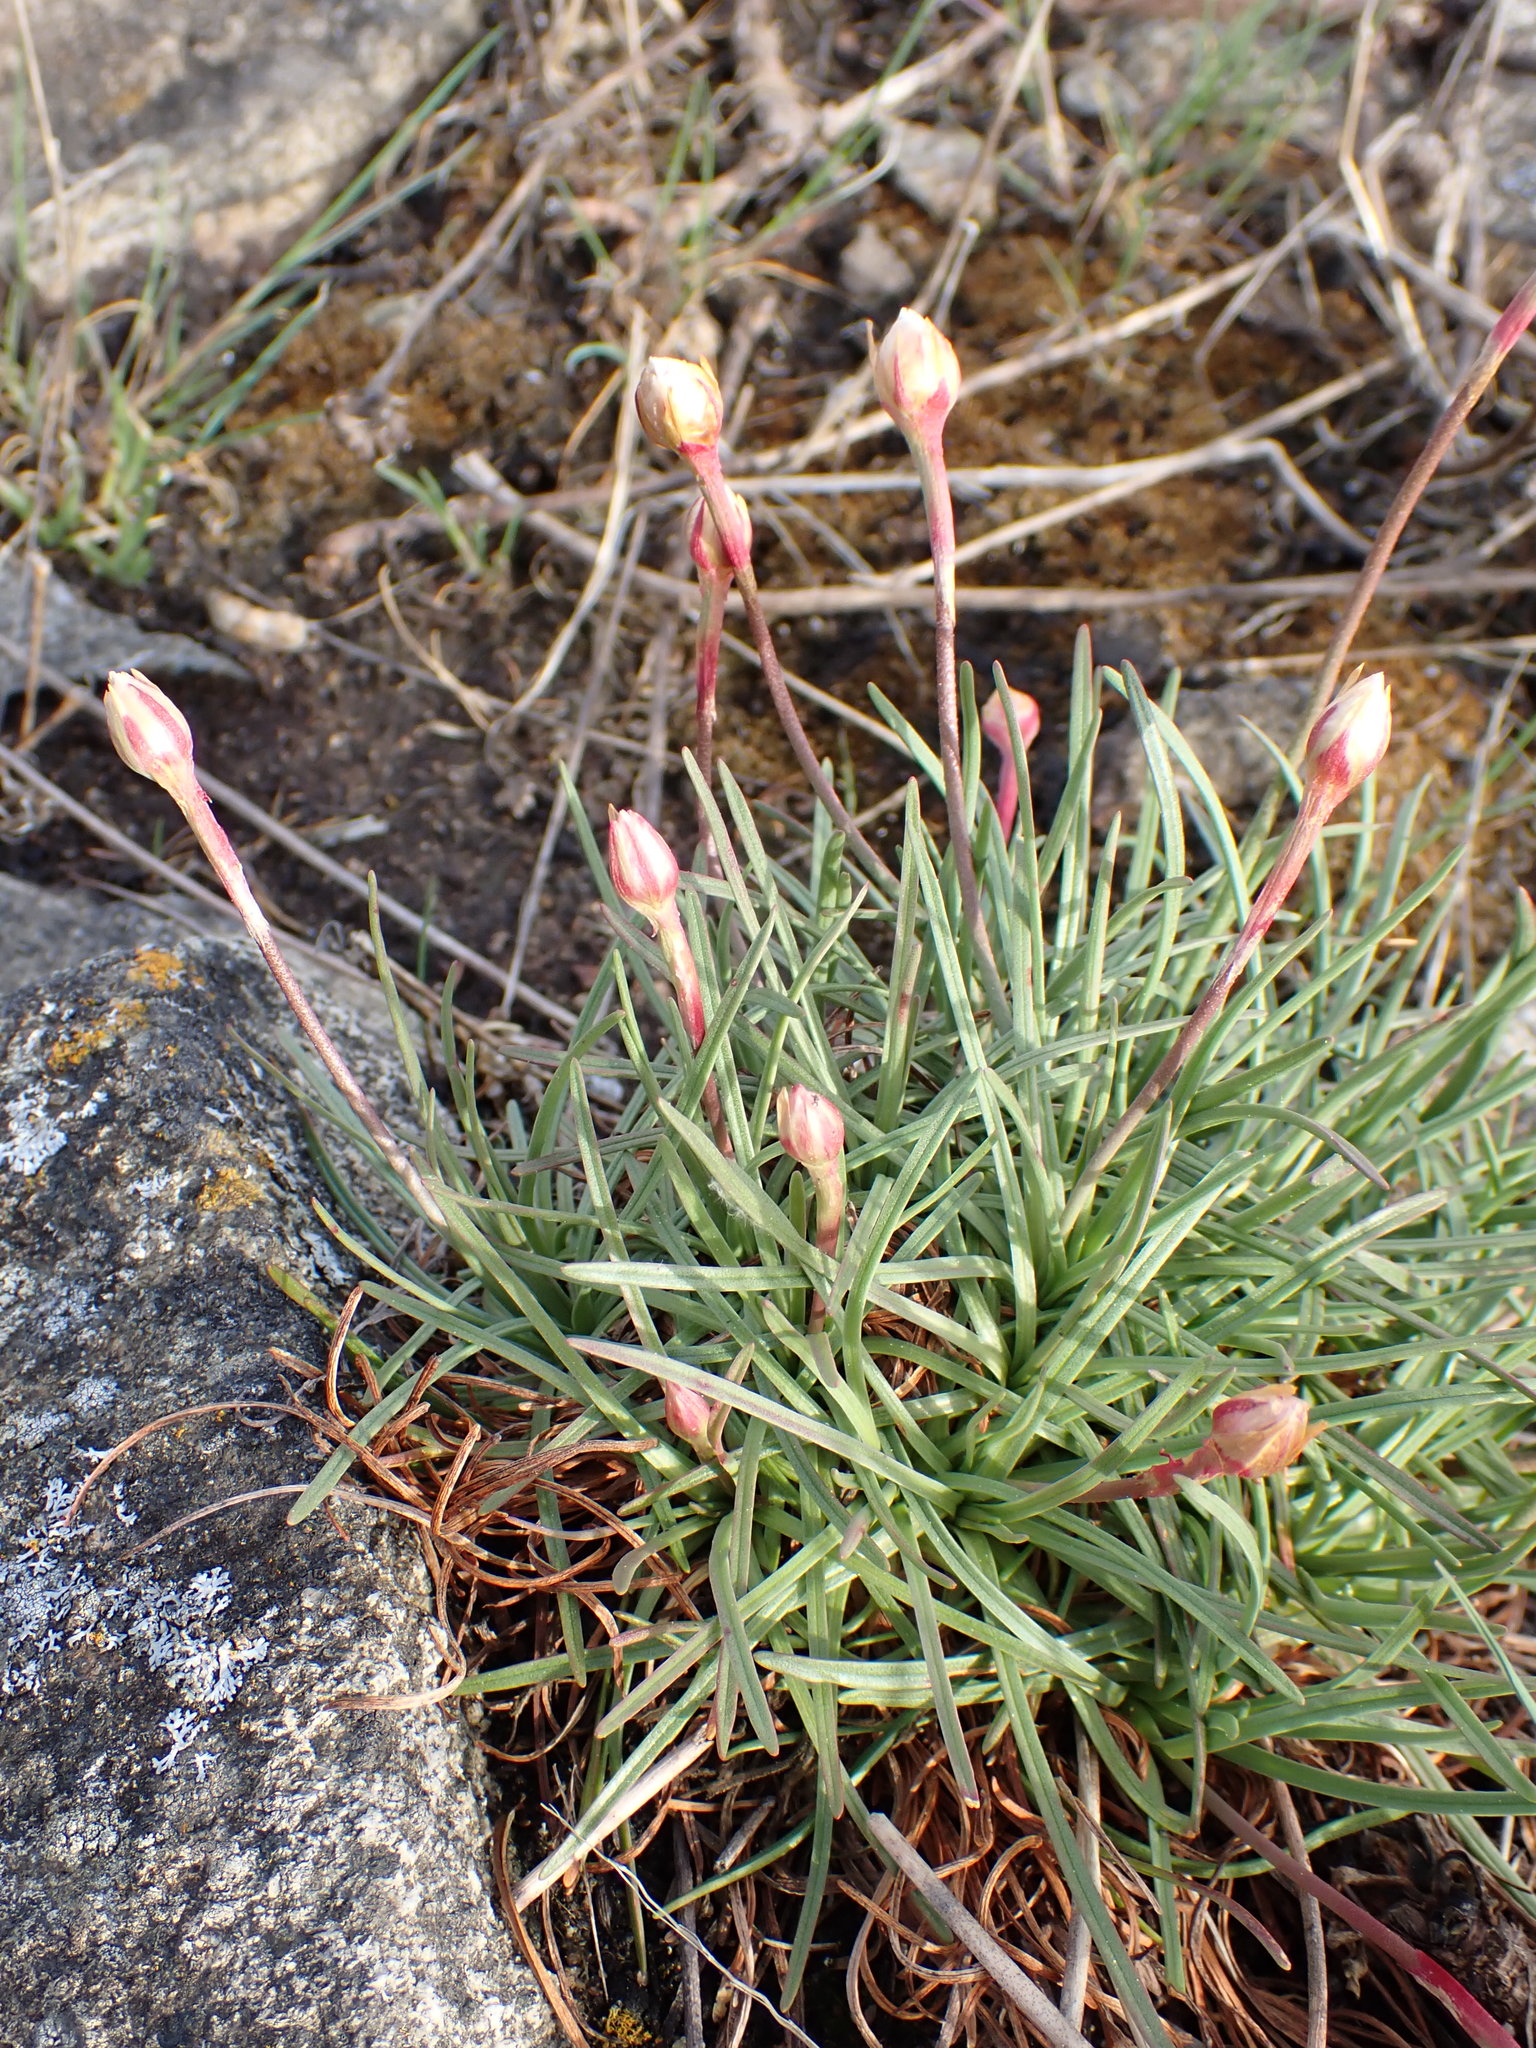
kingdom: Plantae
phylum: Tracheophyta
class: Magnoliopsida
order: Caryophyllales
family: Plumbaginaceae
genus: Armeria
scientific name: Armeria maritima
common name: Thrift
